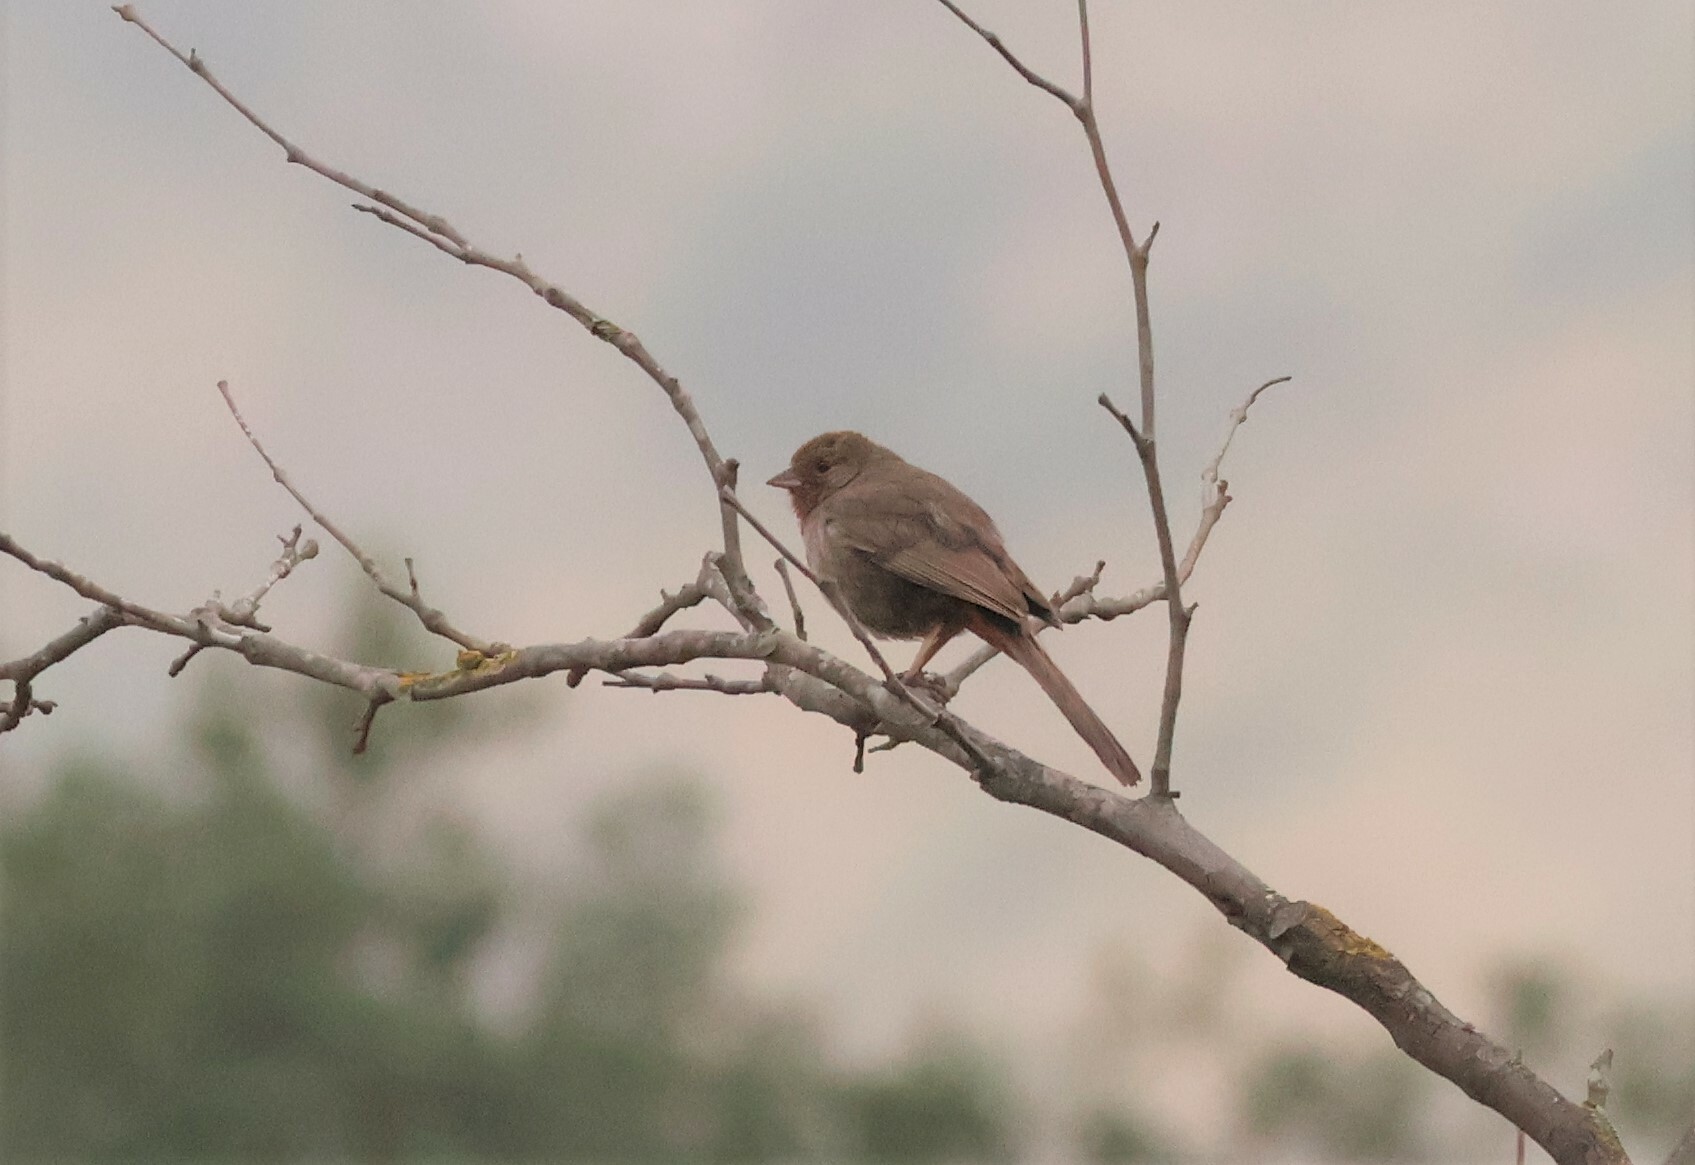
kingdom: Animalia
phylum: Chordata
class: Aves
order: Passeriformes
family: Passerellidae
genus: Melozone
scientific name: Melozone crissalis
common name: California towhee
